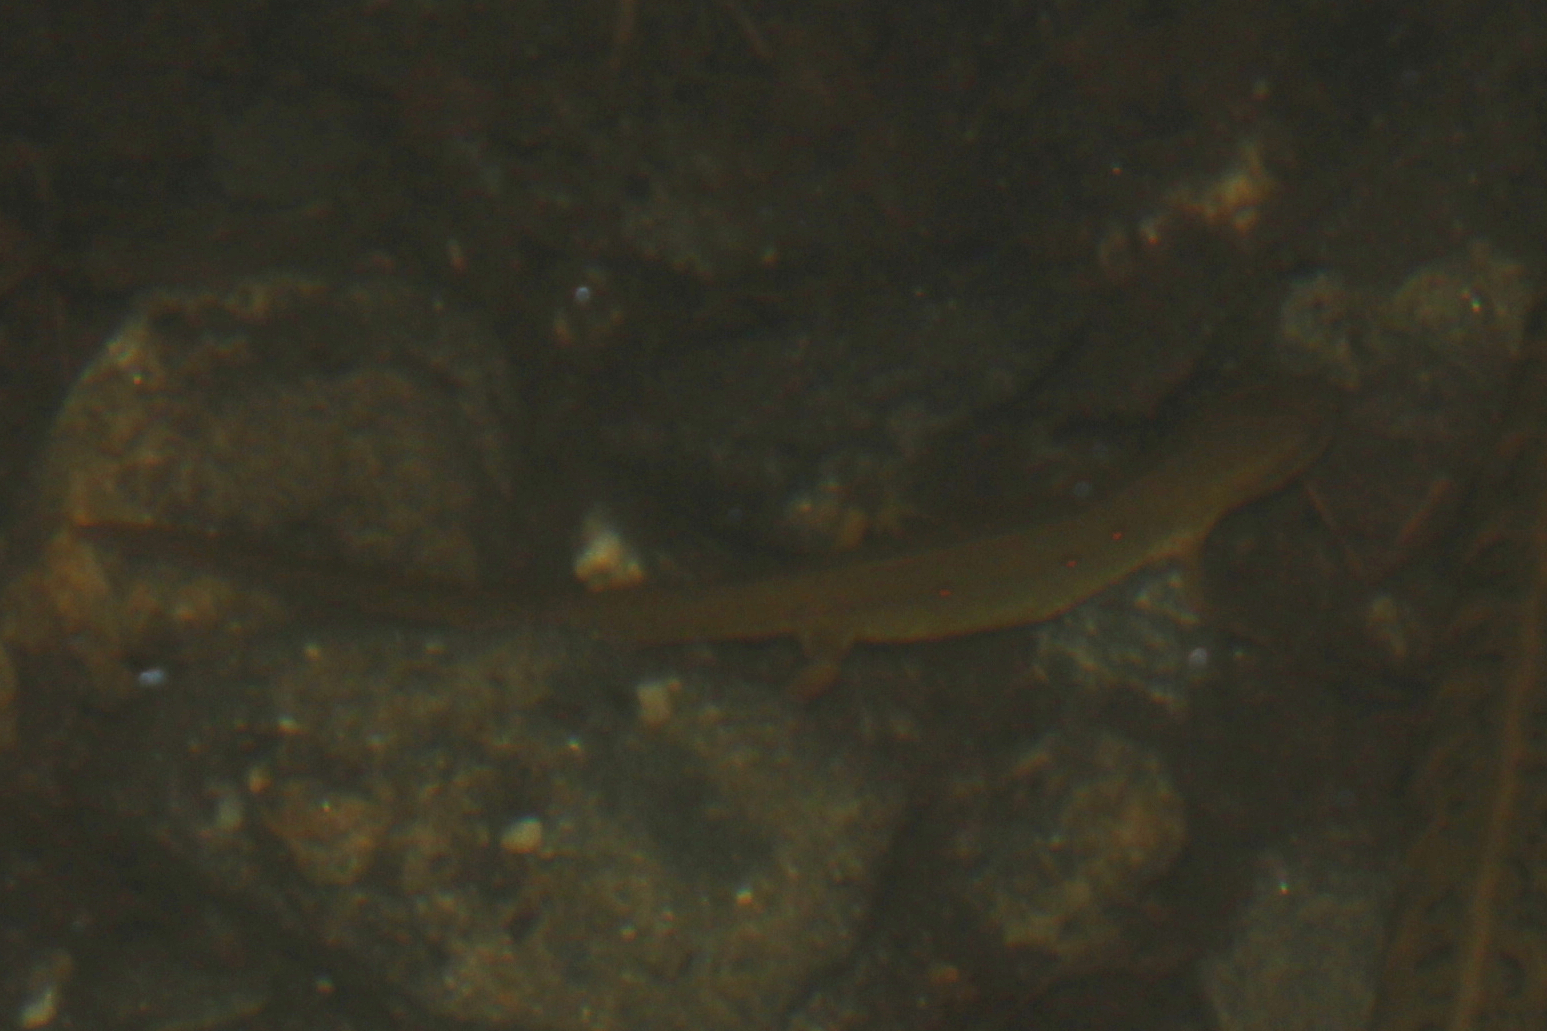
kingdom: Animalia
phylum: Chordata
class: Amphibia
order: Caudata
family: Salamandridae
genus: Notophthalmus
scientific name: Notophthalmus viridescens
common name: Eastern newt
